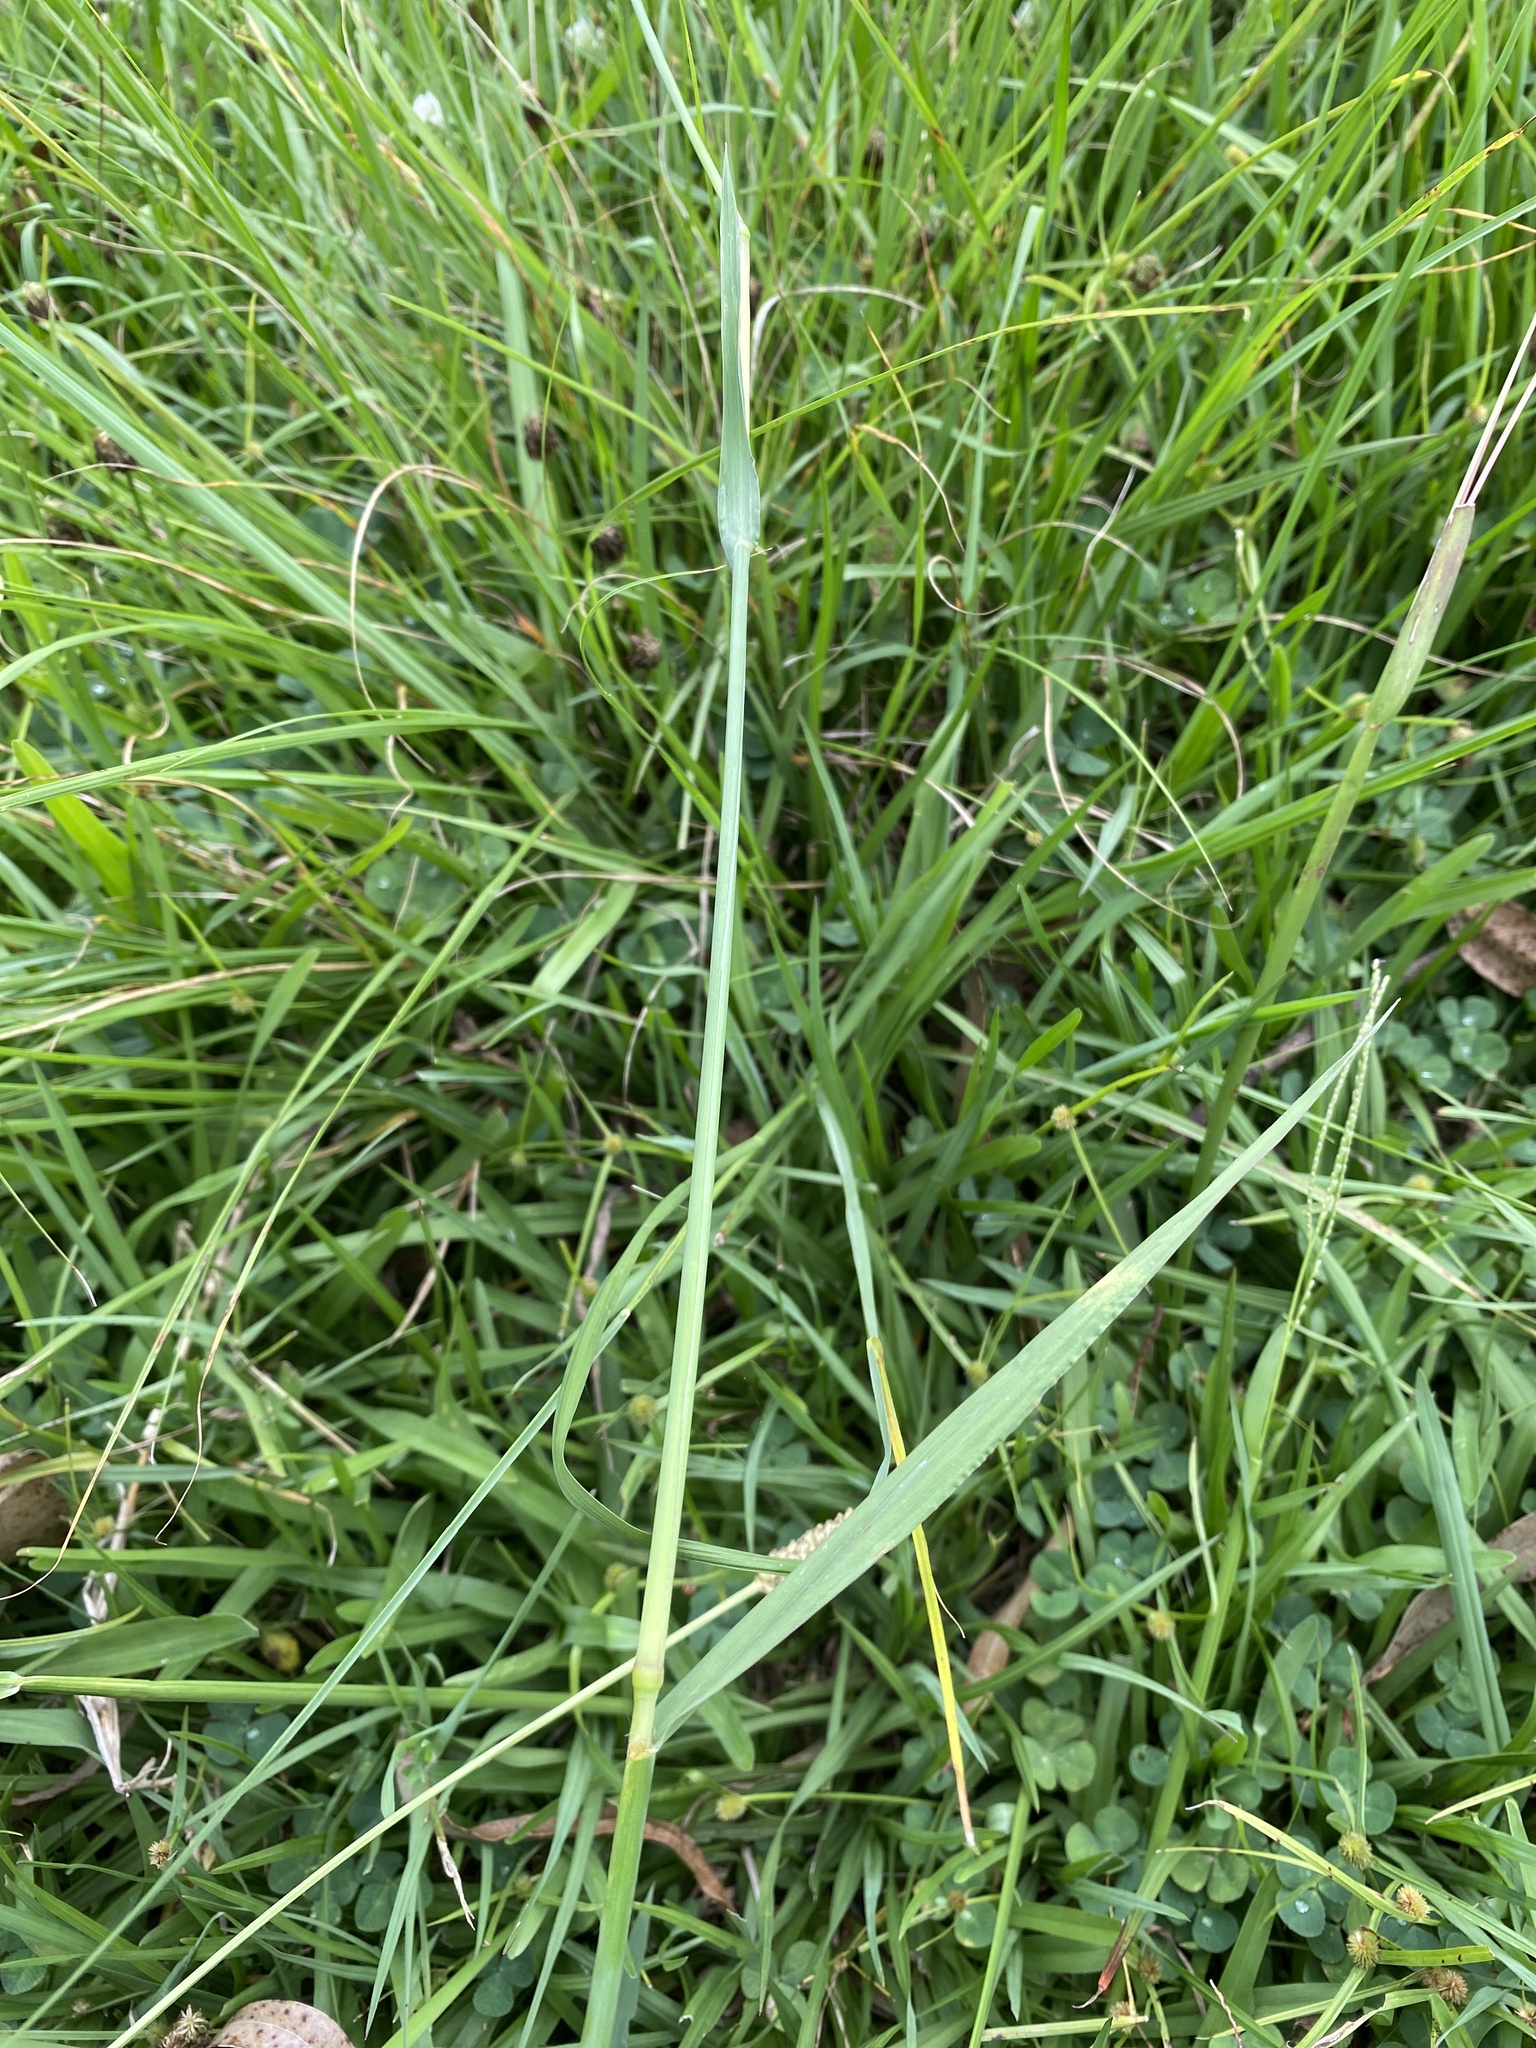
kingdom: Plantae
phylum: Tracheophyta
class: Liliopsida
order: Poales
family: Poaceae
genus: Paspalum
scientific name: Paspalum dilatatum
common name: Dallisgrass
